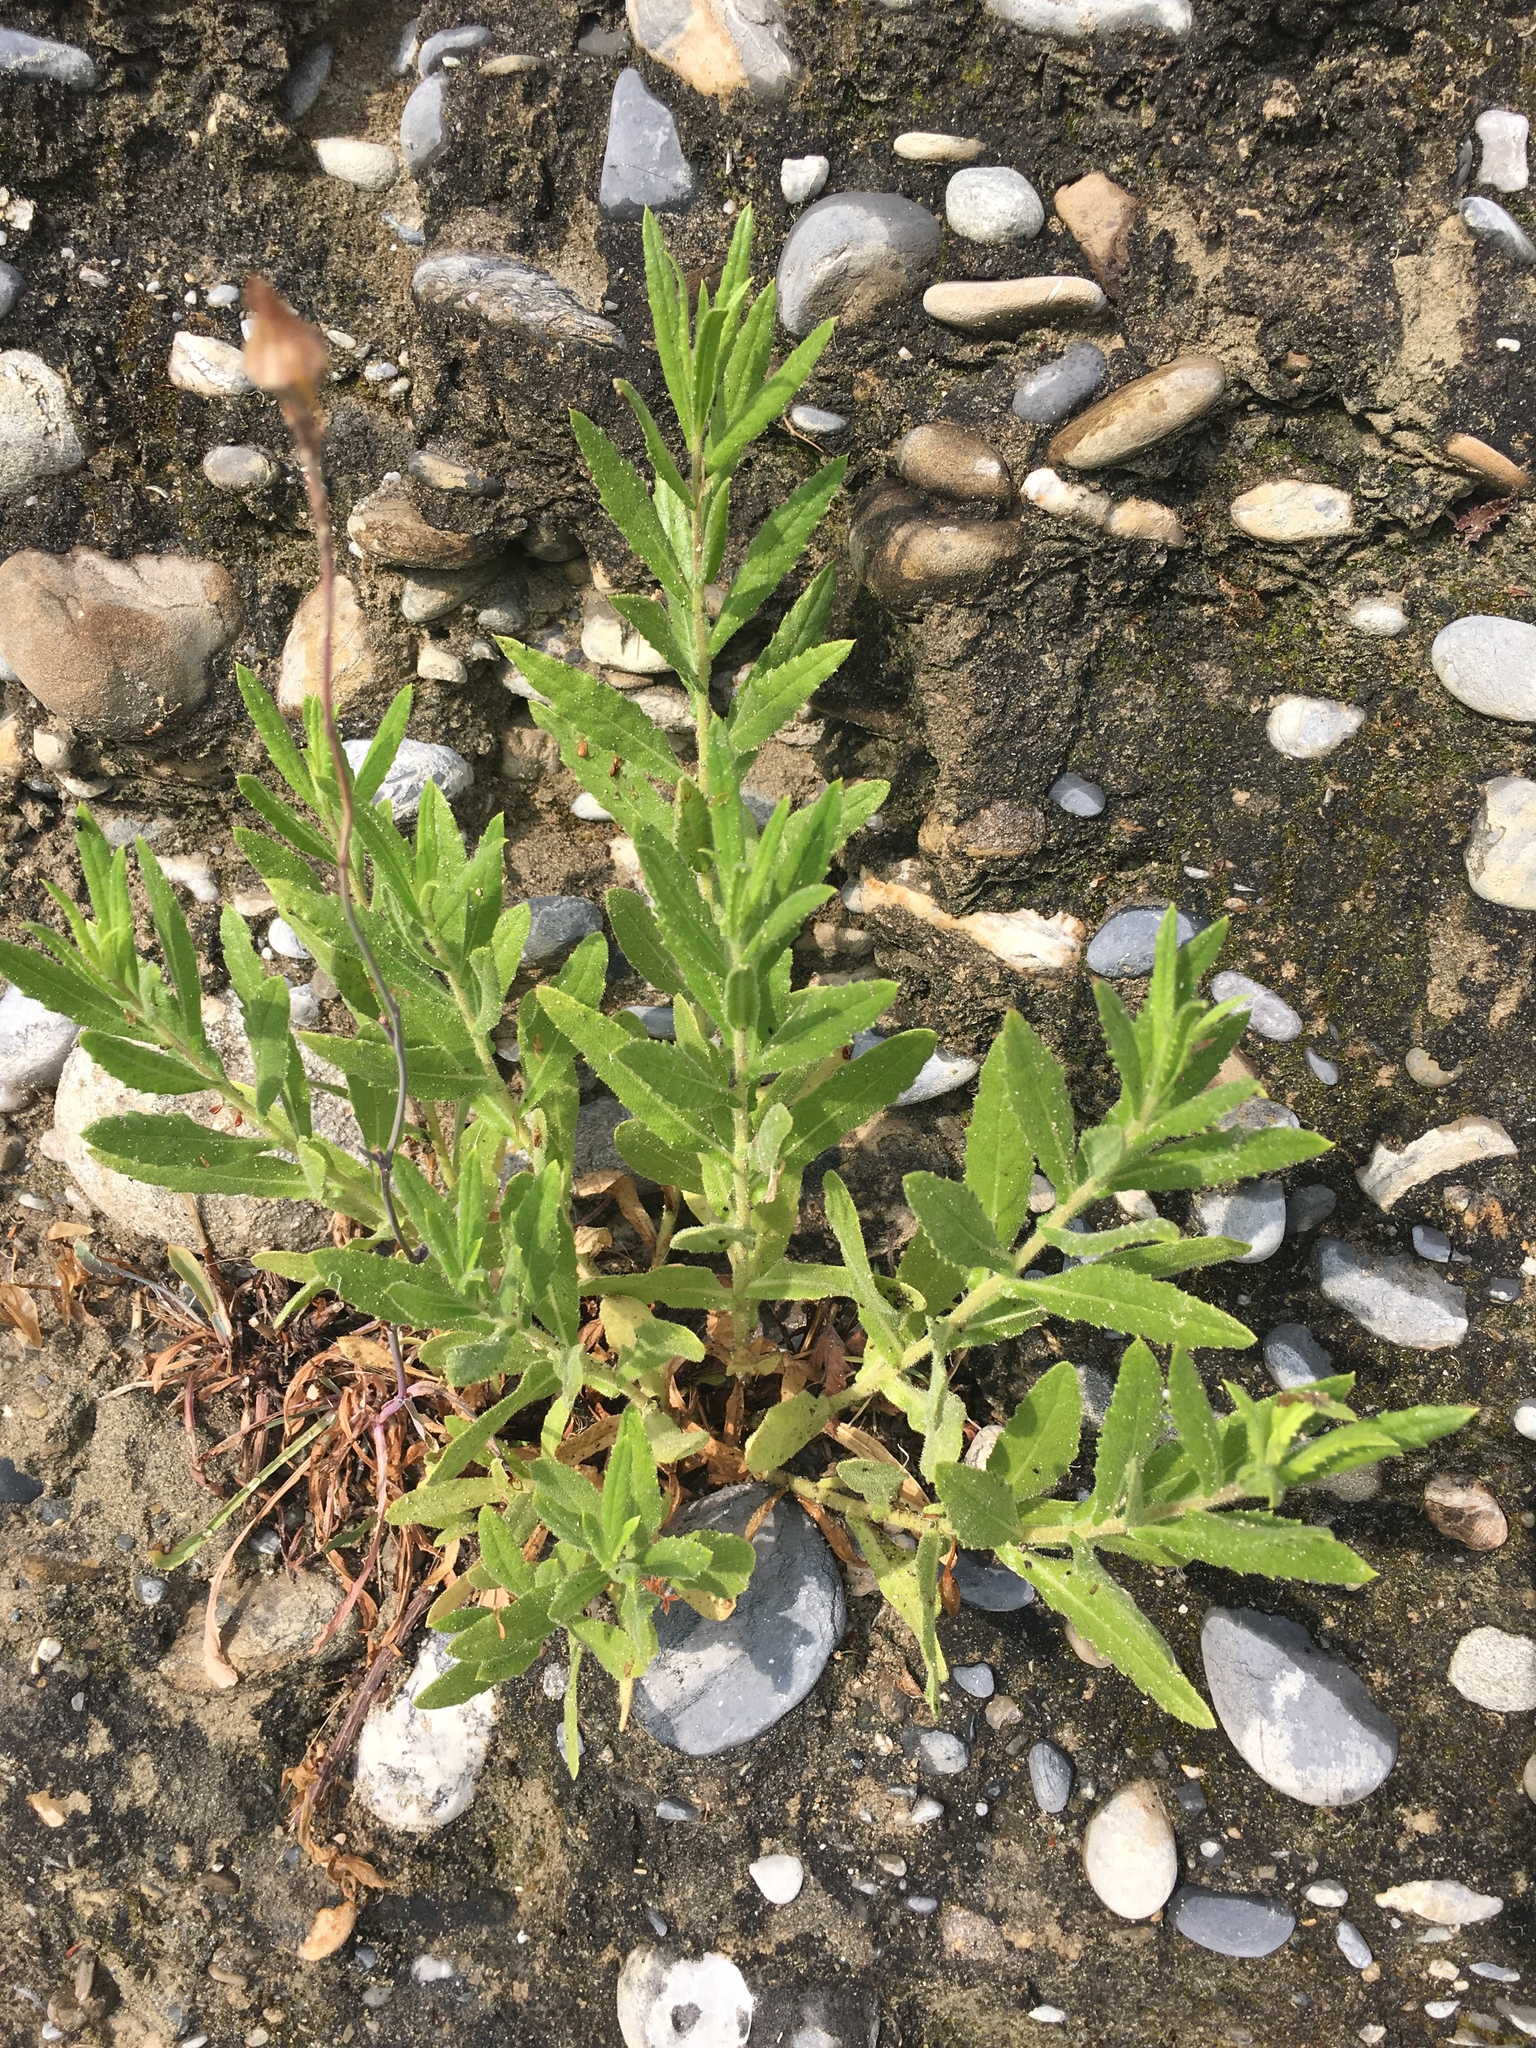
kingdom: Plantae
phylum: Tracheophyta
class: Magnoliopsida
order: Asterales
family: Asteraceae
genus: Dittrichia
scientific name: Dittrichia viscosa
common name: Woody fleabane
